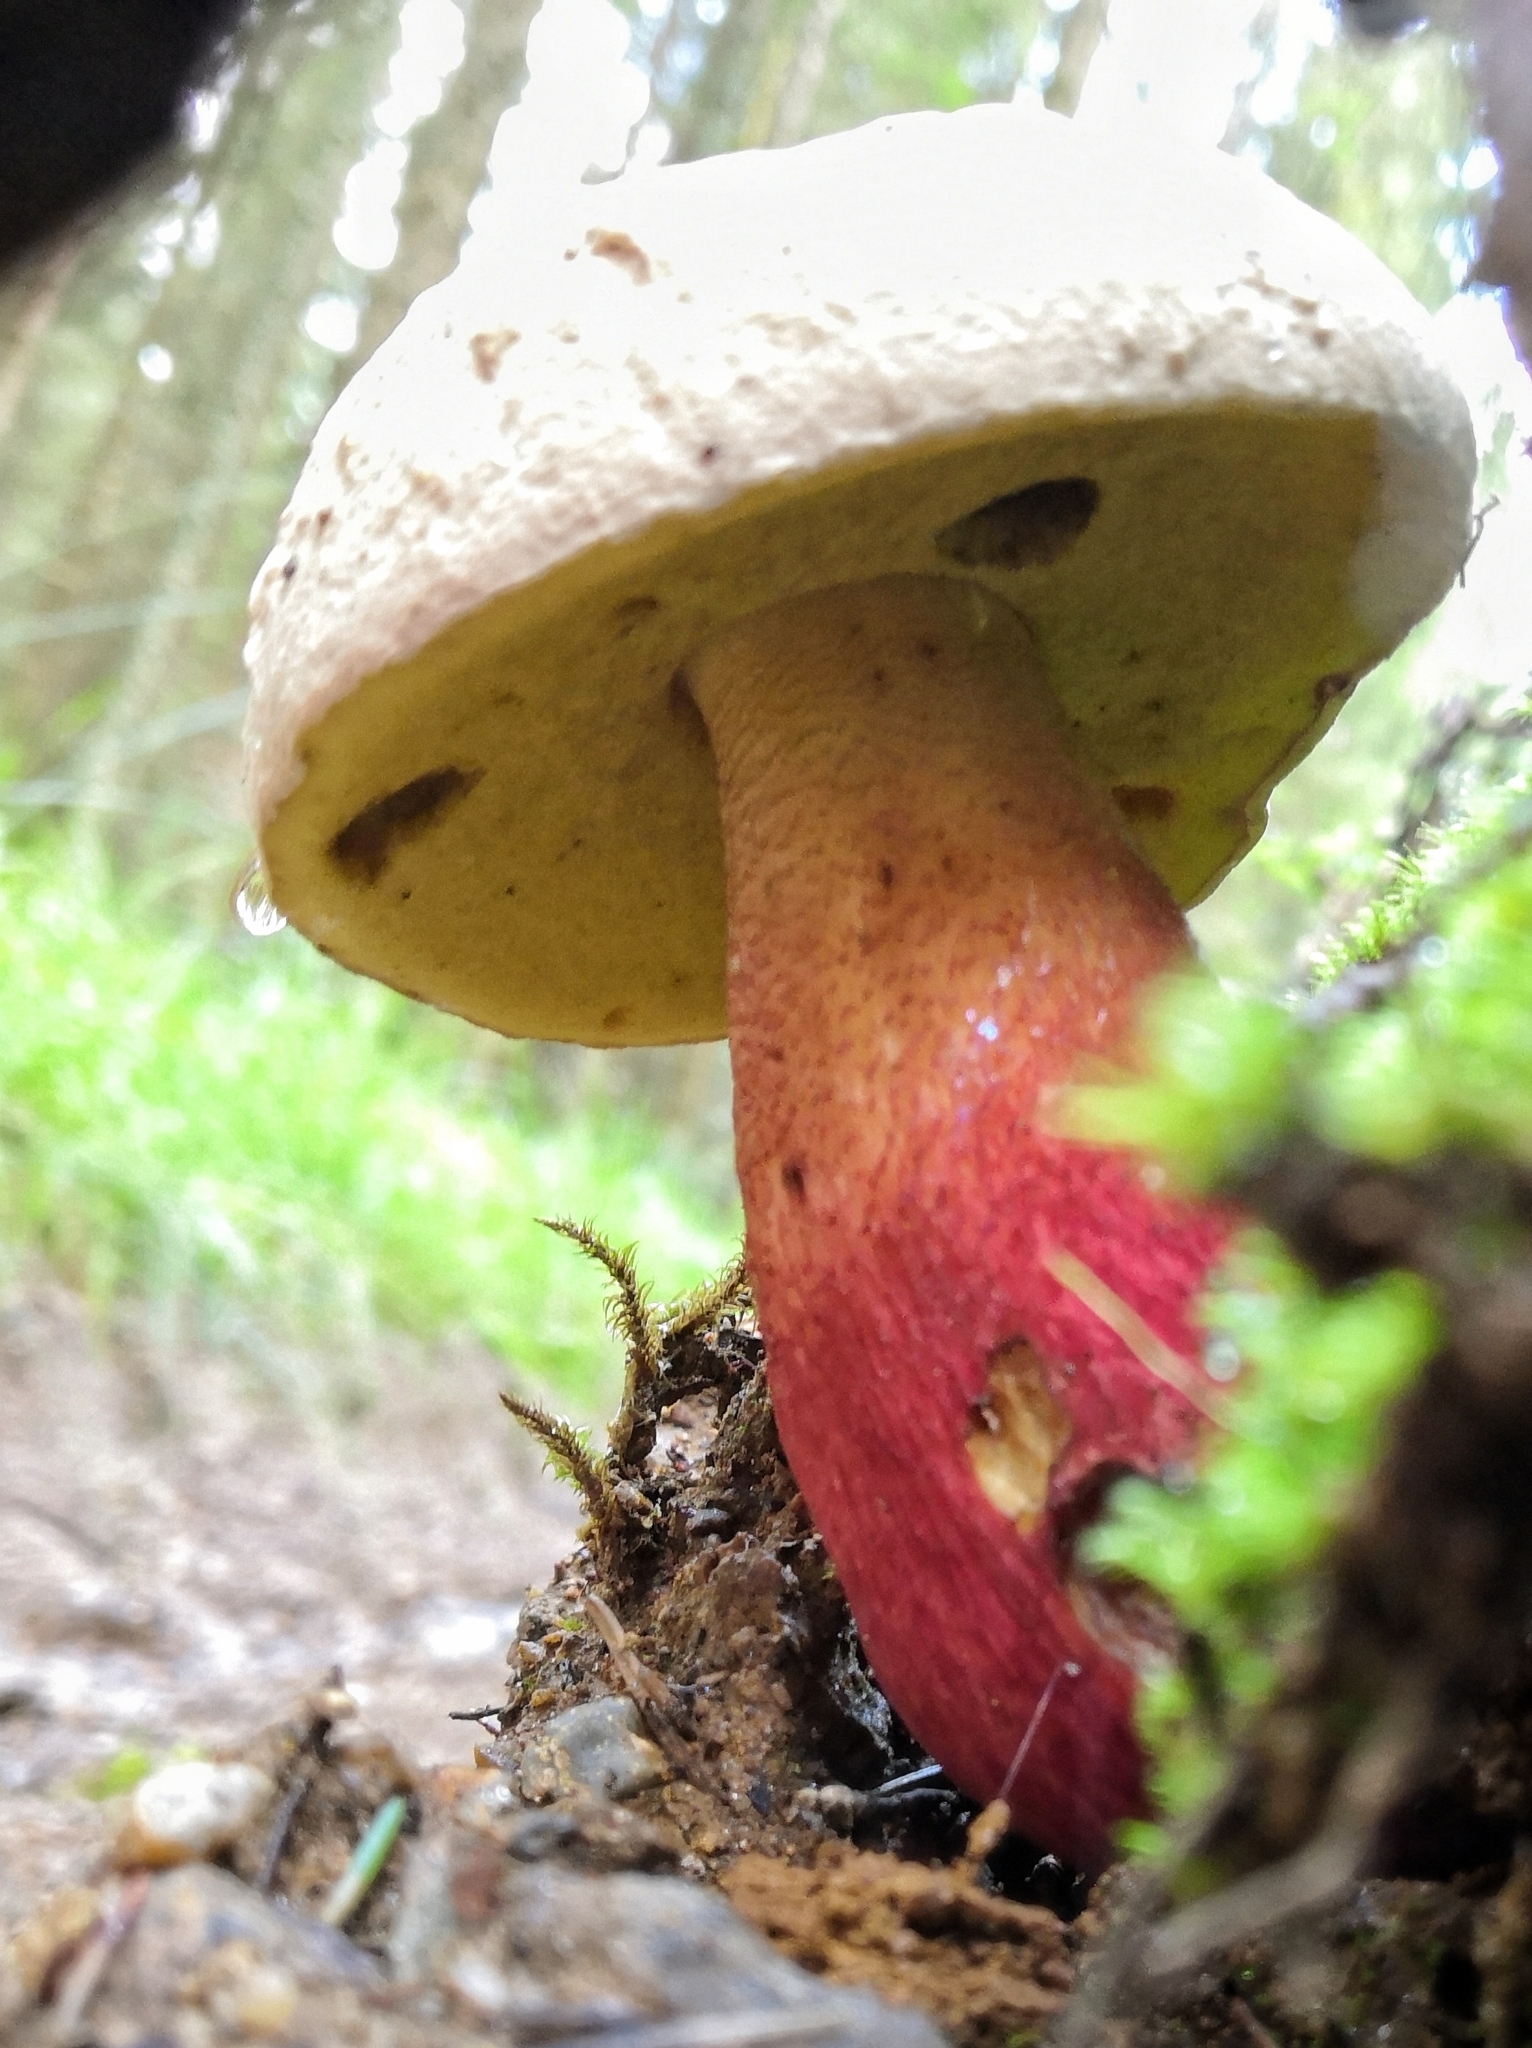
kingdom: Fungi
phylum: Basidiomycota
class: Agaricomycetes
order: Boletales
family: Boletaceae
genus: Caloboletus
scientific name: Caloboletus calopus
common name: Bitter beech bolete
